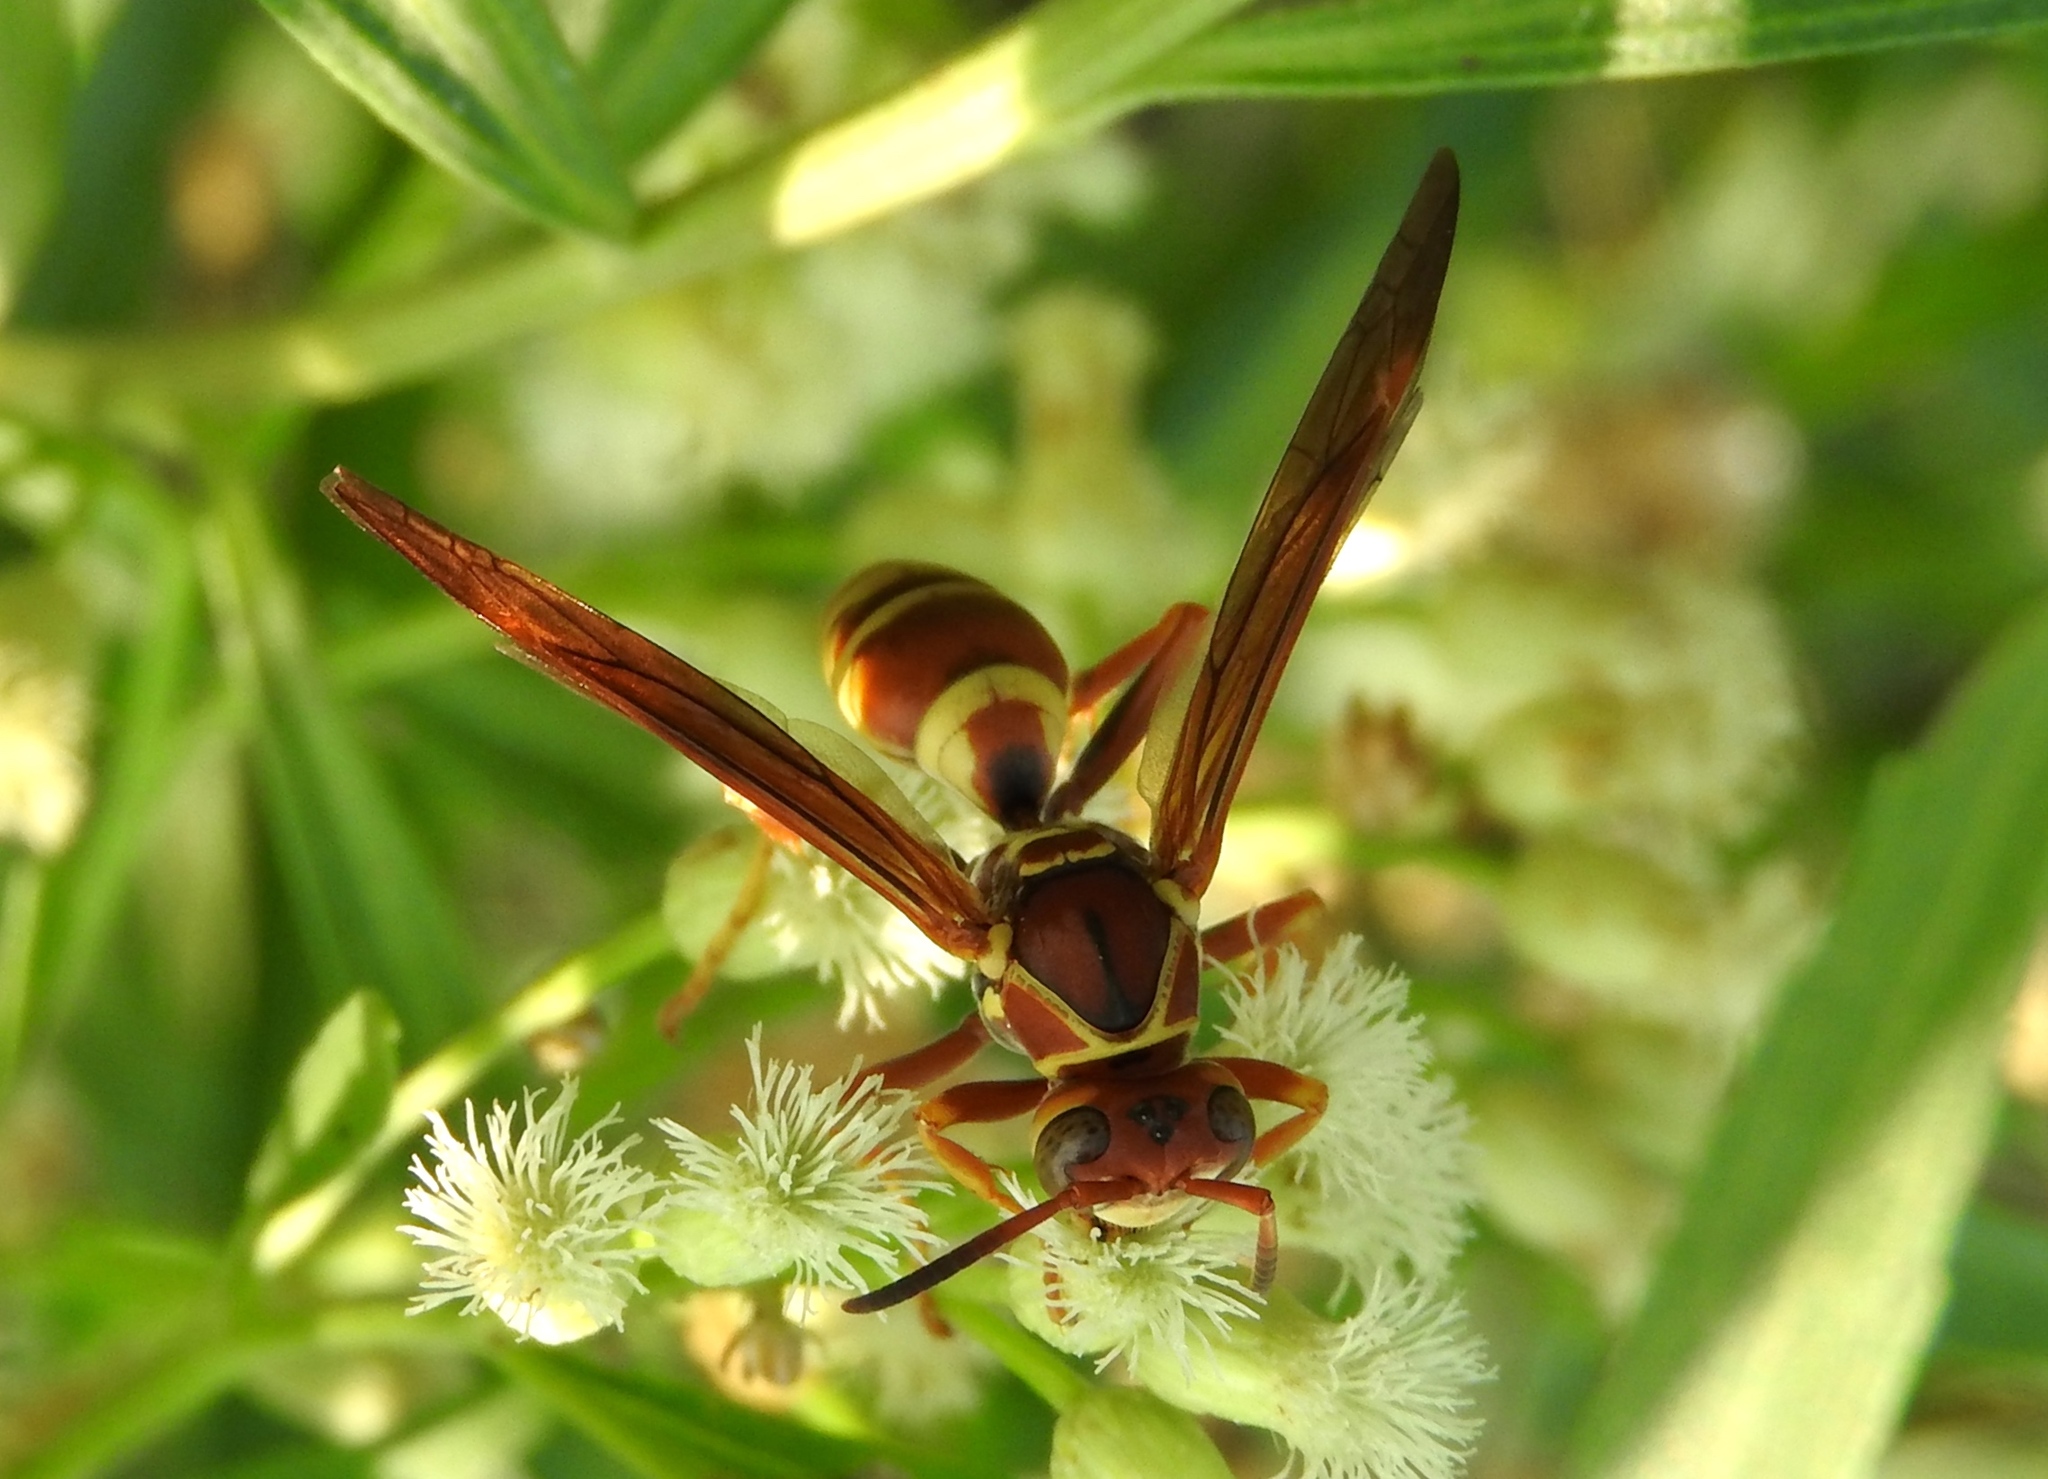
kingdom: Animalia
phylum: Arthropoda
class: Insecta
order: Hymenoptera
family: Eumenidae
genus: Polistes
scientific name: Polistes dorsalis
